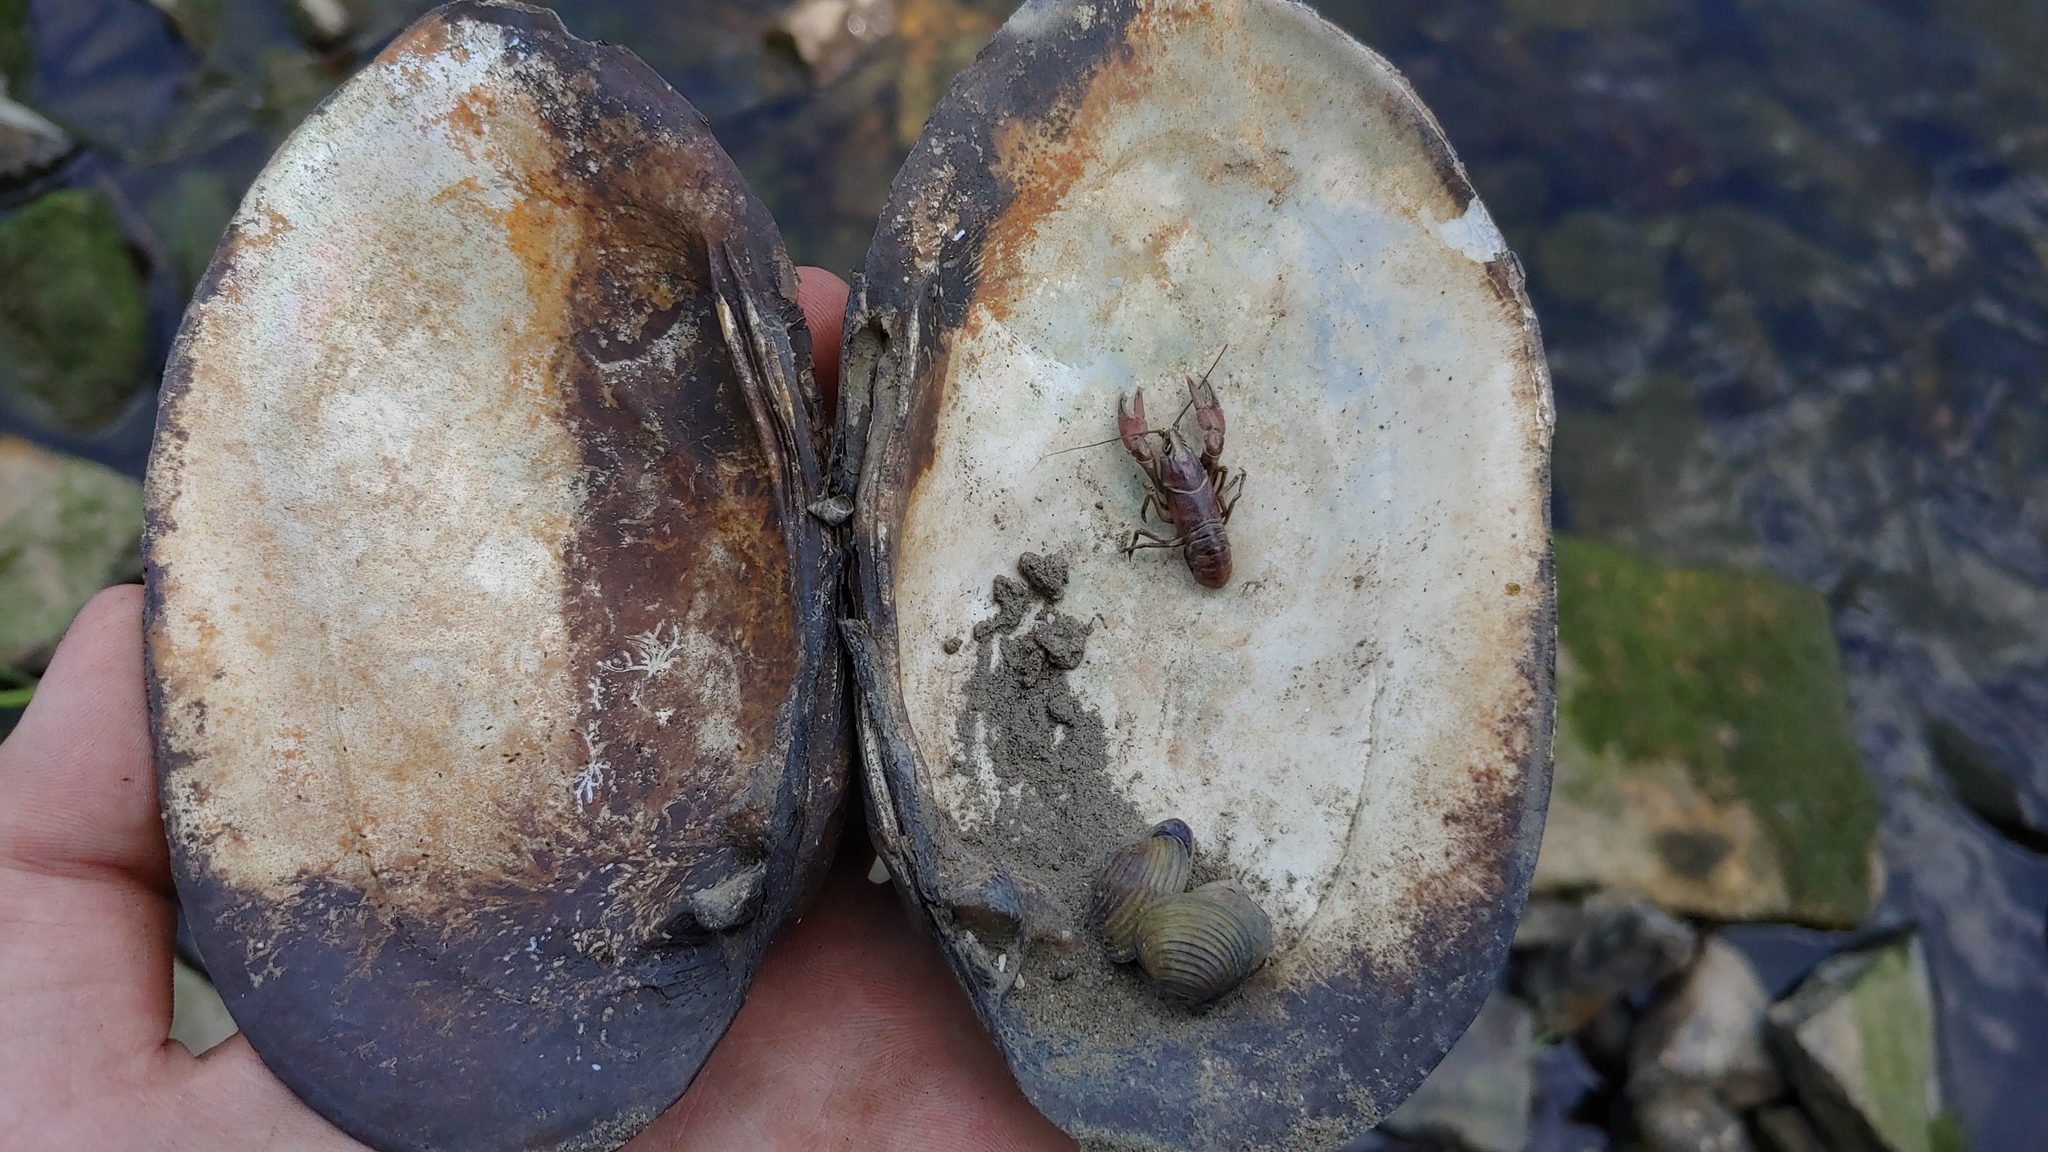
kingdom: Animalia
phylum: Mollusca
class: Bivalvia
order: Unionida
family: Unionidae
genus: Ortmanniana
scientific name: Ortmanniana ligamentina
